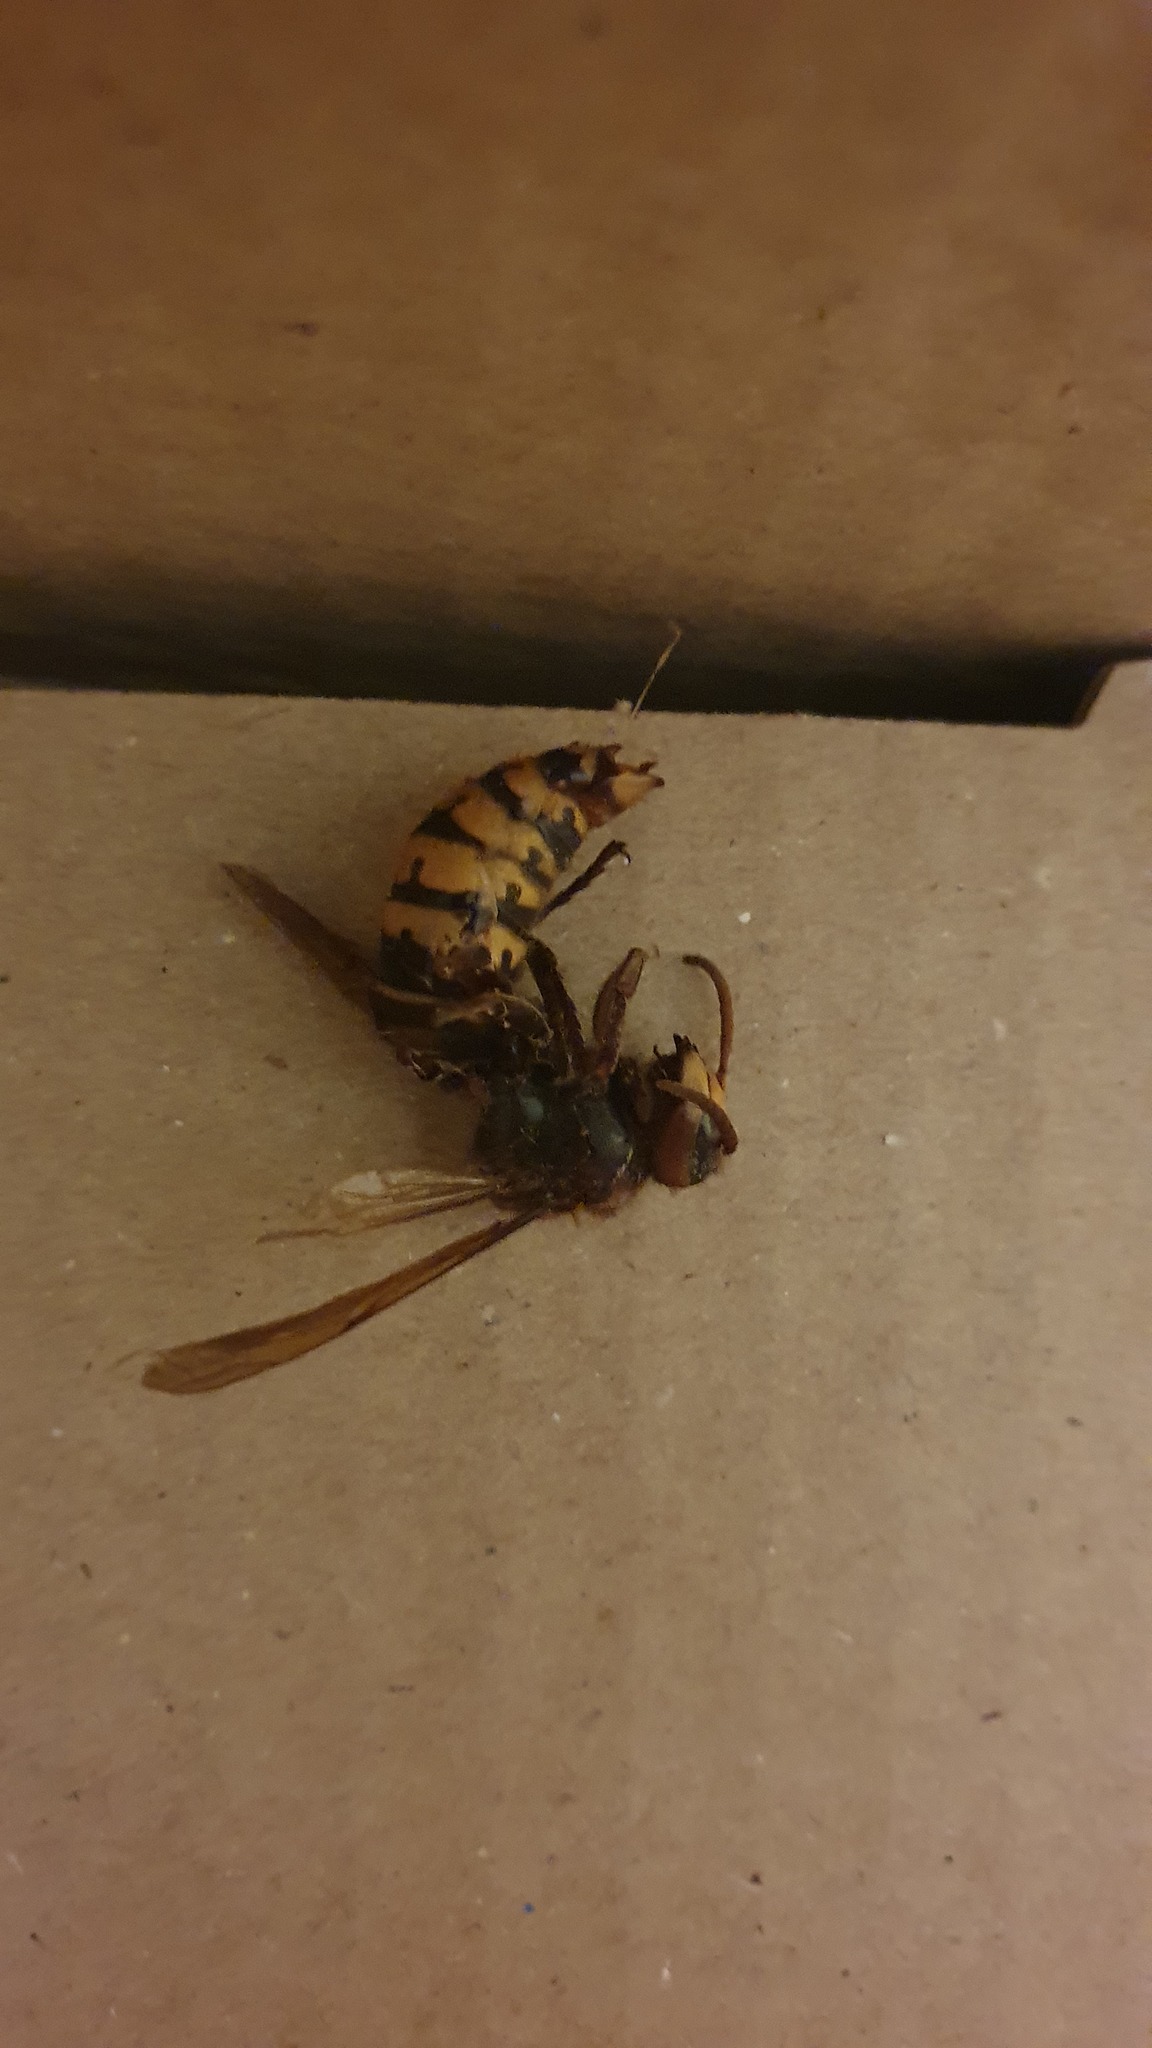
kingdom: Animalia
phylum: Arthropoda
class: Insecta
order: Hymenoptera
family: Vespidae
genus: Vespa
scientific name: Vespa crabro
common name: Hornet
